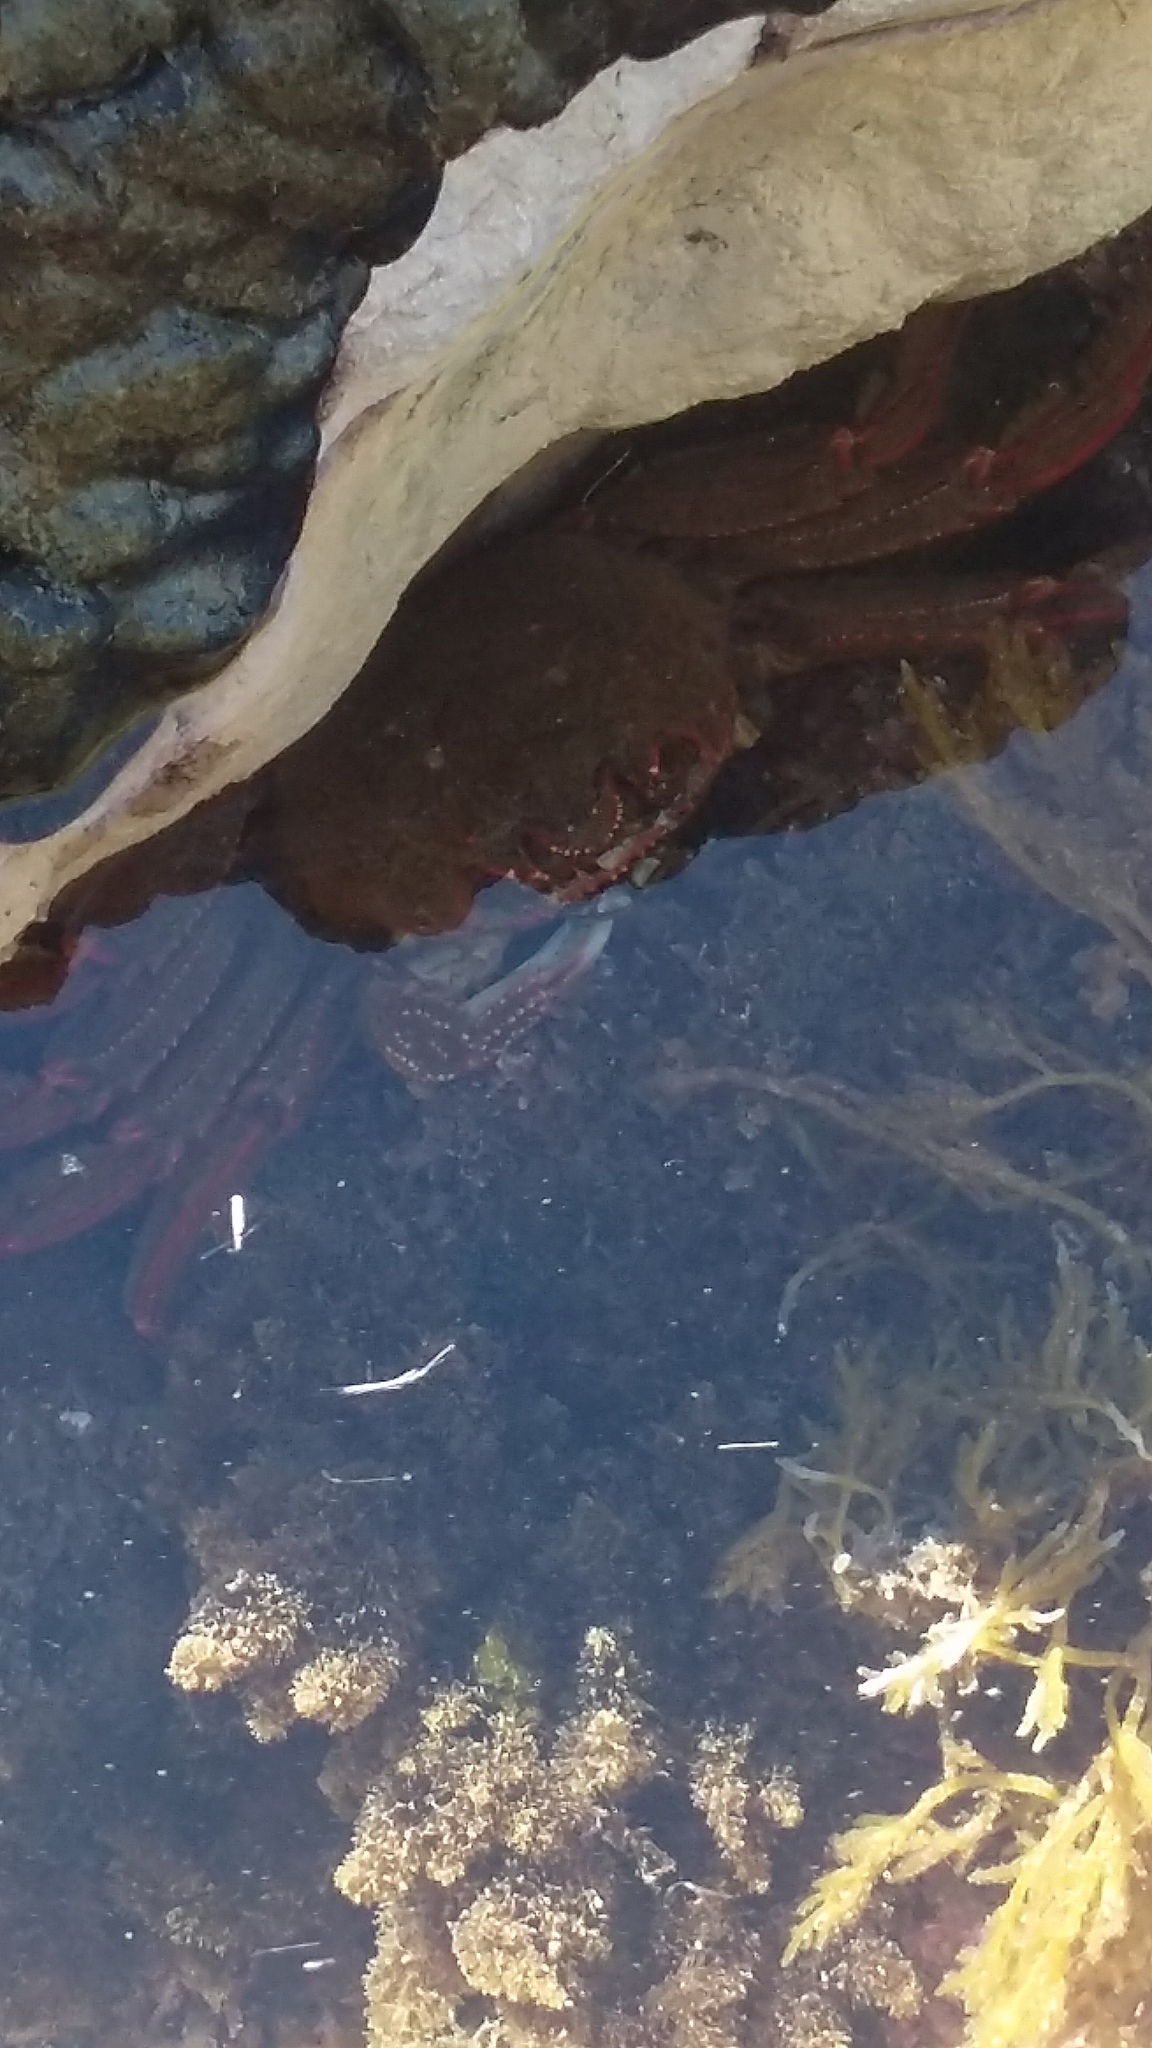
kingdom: Animalia
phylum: Arthropoda
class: Malacostraca
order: Decapoda
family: Plagusiidae
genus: Guinusia
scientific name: Guinusia chabrus
